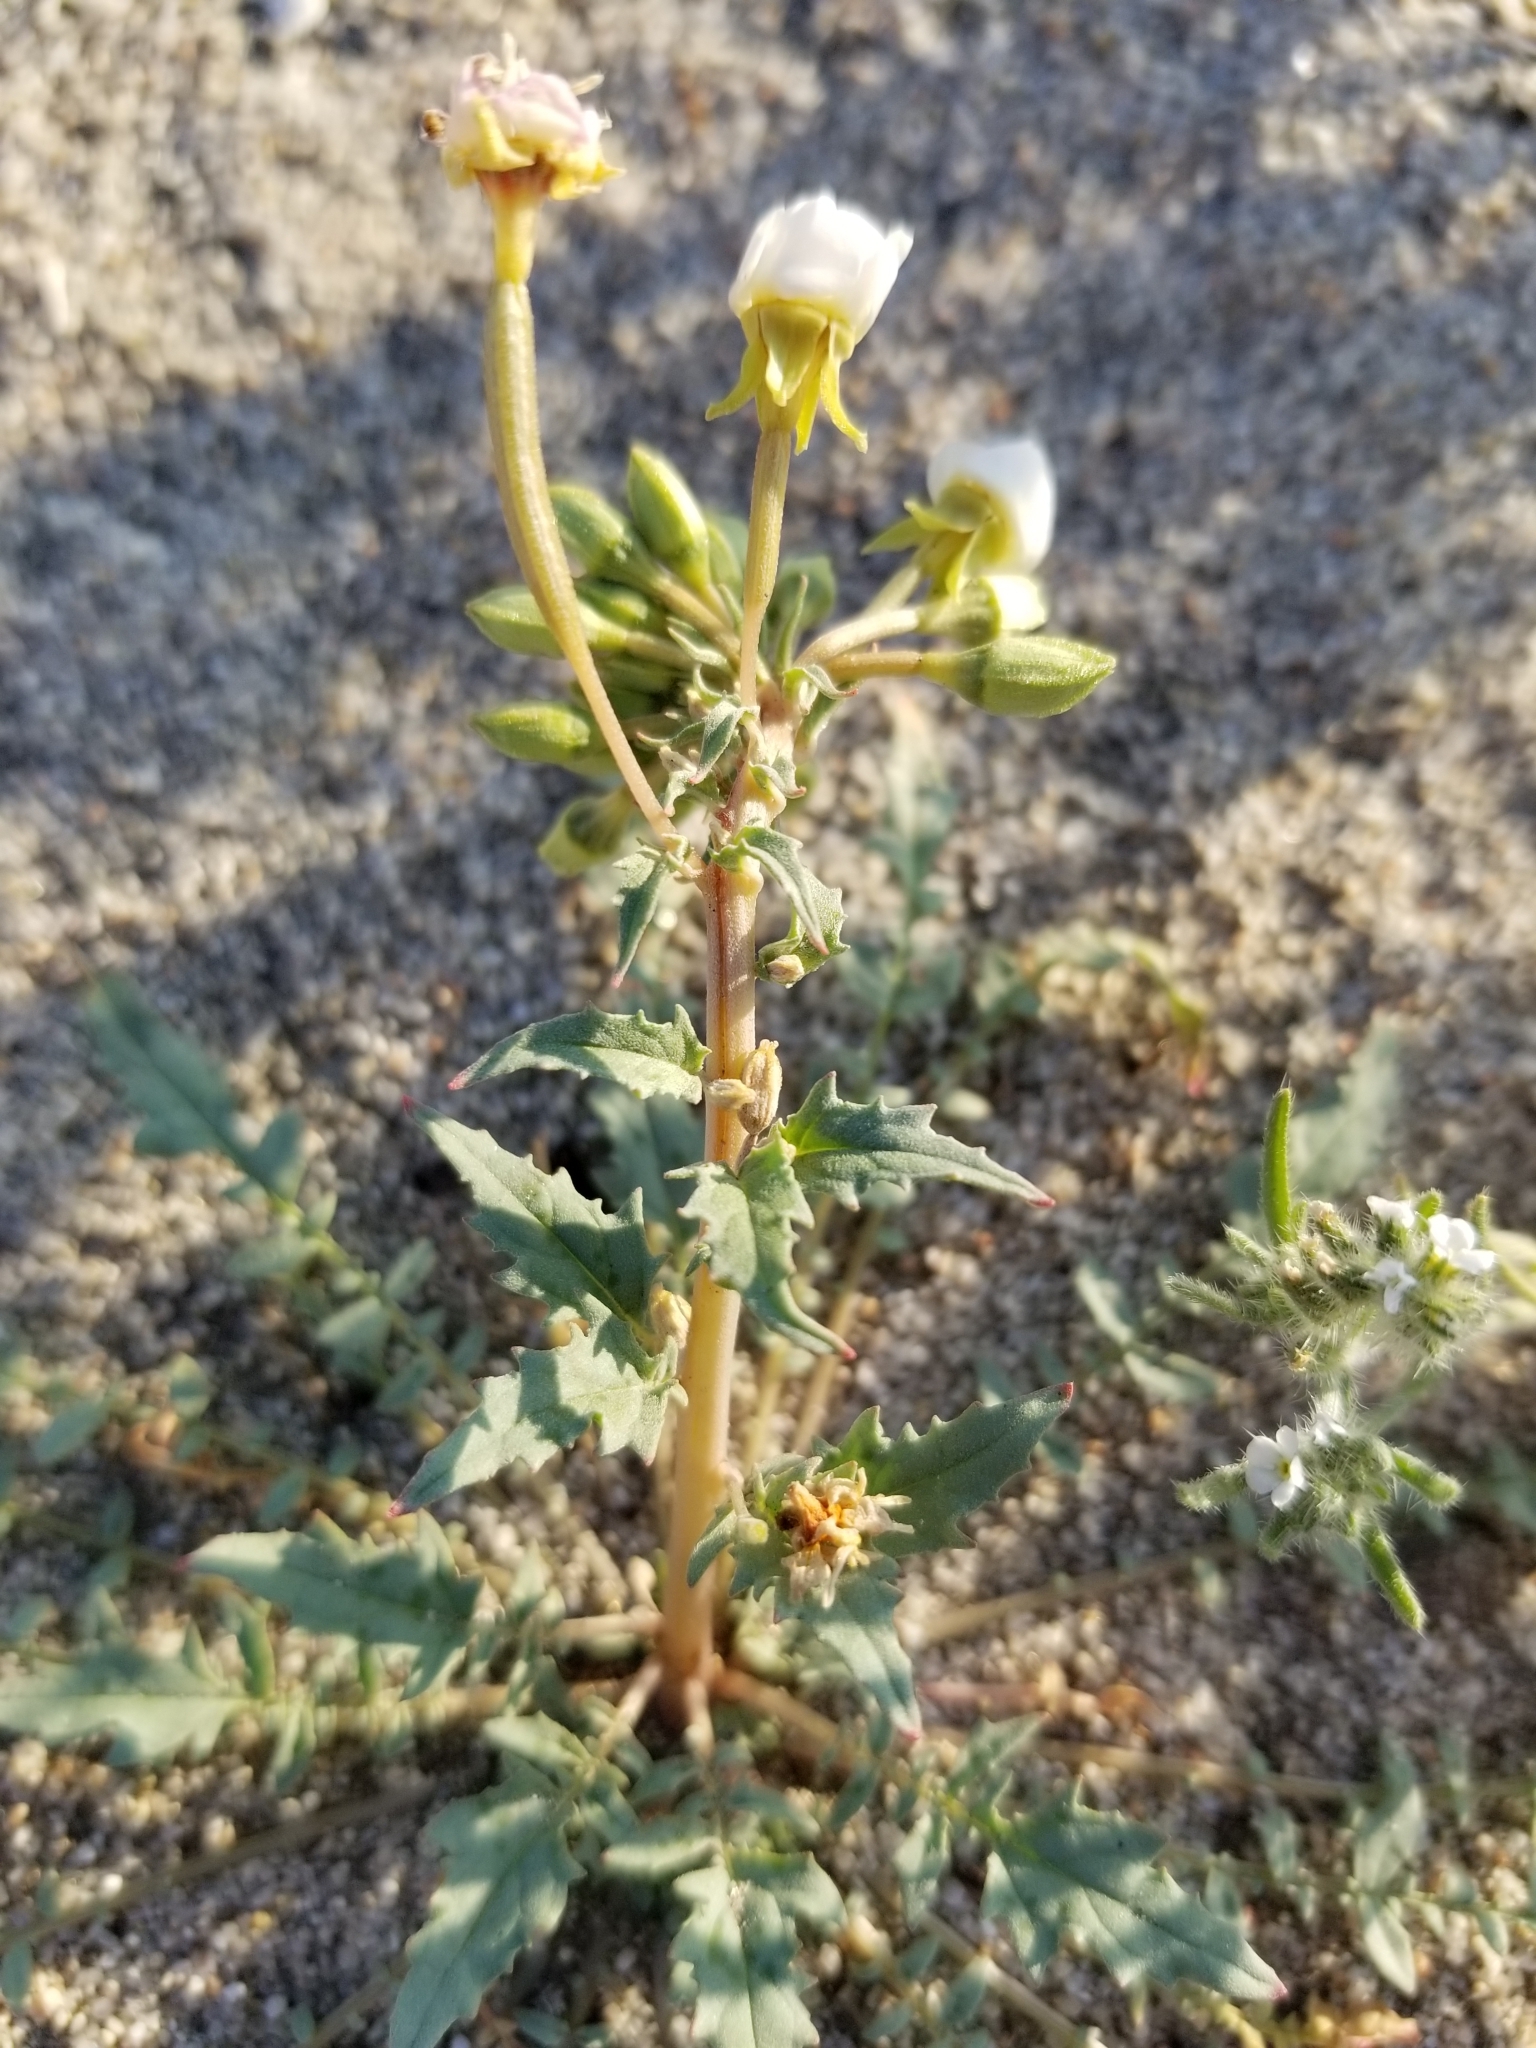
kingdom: Plantae
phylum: Tracheophyta
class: Magnoliopsida
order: Myrtales
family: Onagraceae
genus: Chylismia
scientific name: Chylismia claviformis
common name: Browneyes
